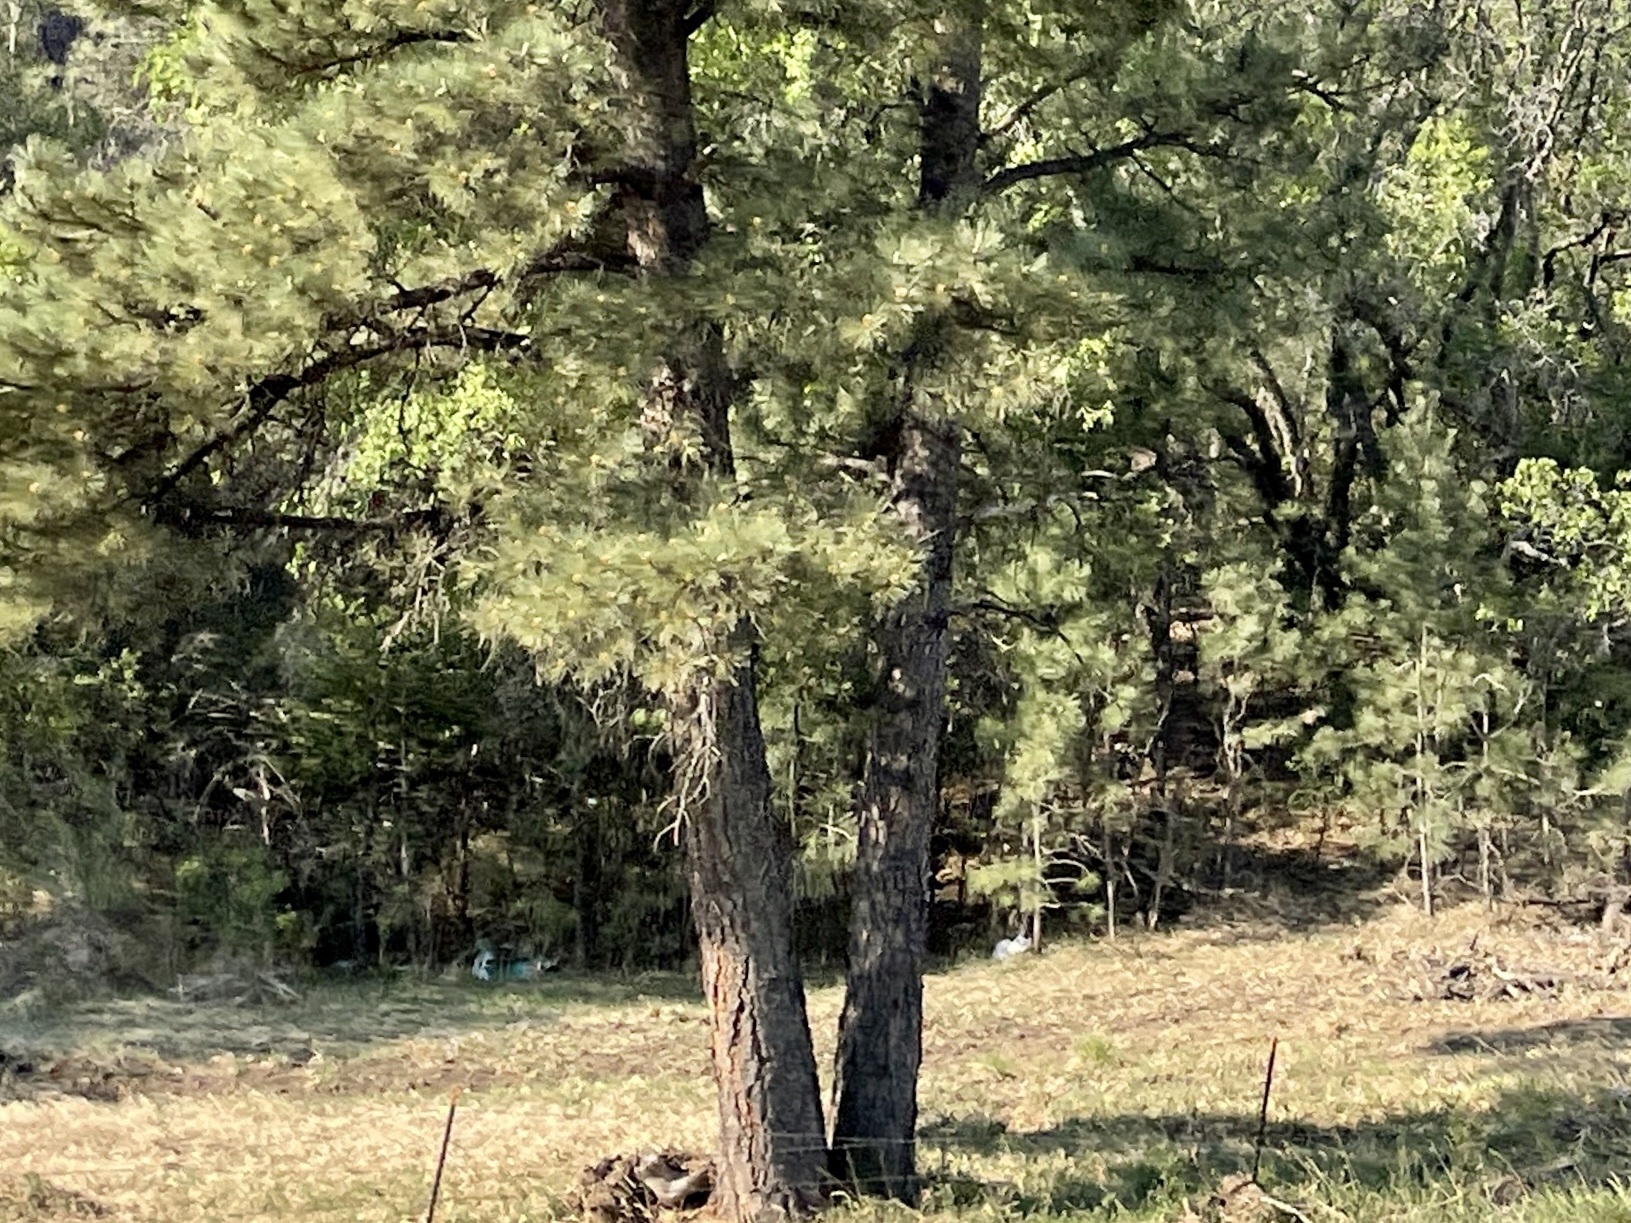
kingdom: Plantae
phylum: Tracheophyta
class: Pinopsida
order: Pinales
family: Pinaceae
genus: Pinus
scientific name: Pinus ponderosa
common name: Western yellow-pine
